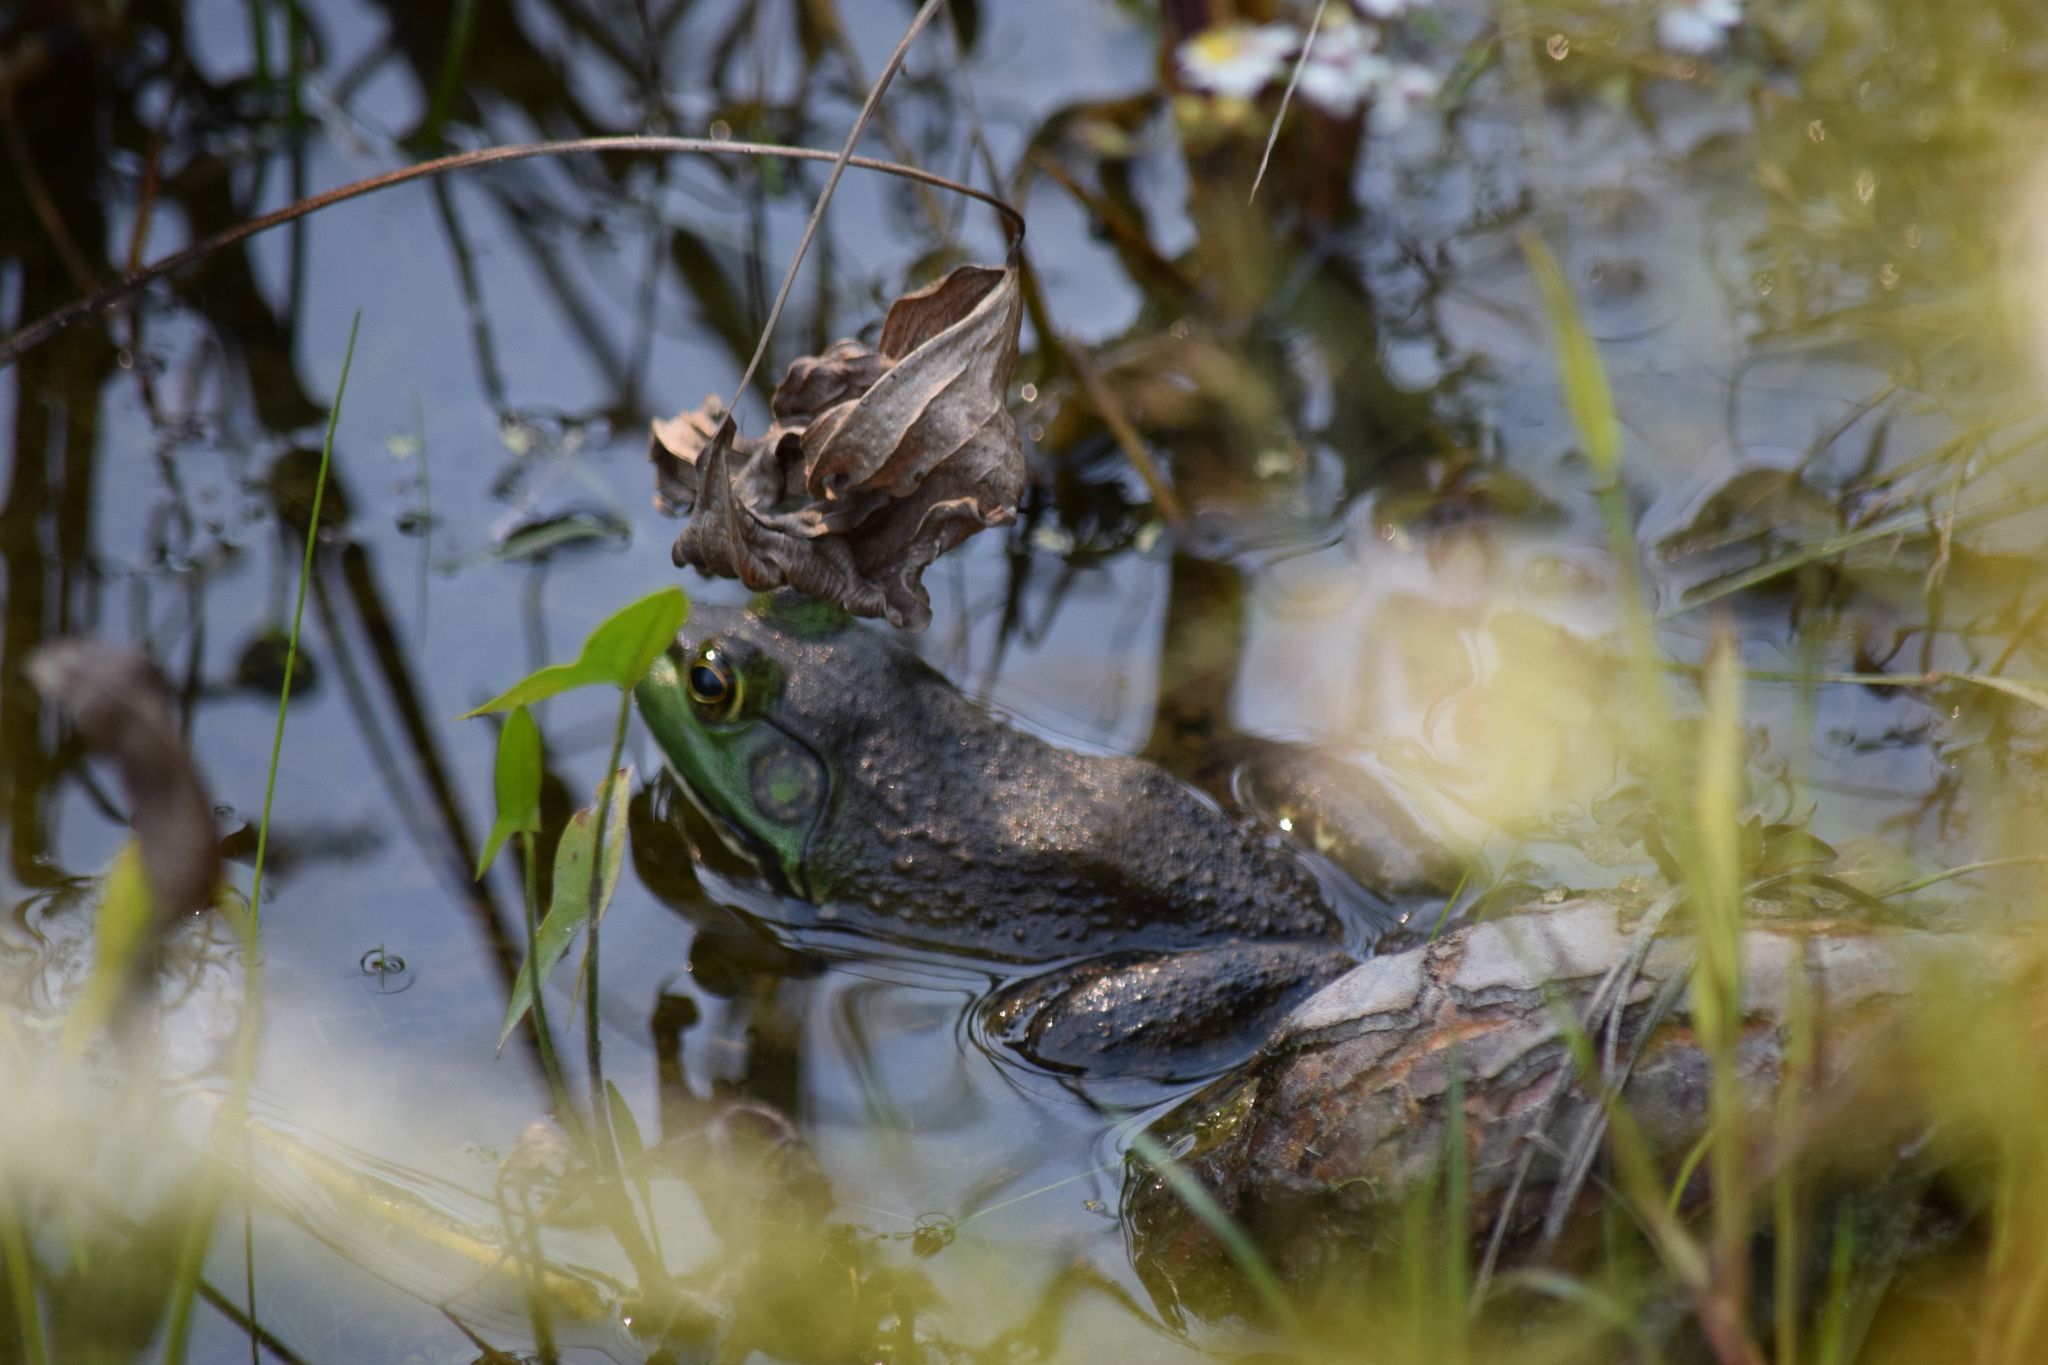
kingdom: Animalia
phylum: Chordata
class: Amphibia
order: Anura
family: Ranidae
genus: Lithobates
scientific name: Lithobates catesbeianus
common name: American bullfrog
